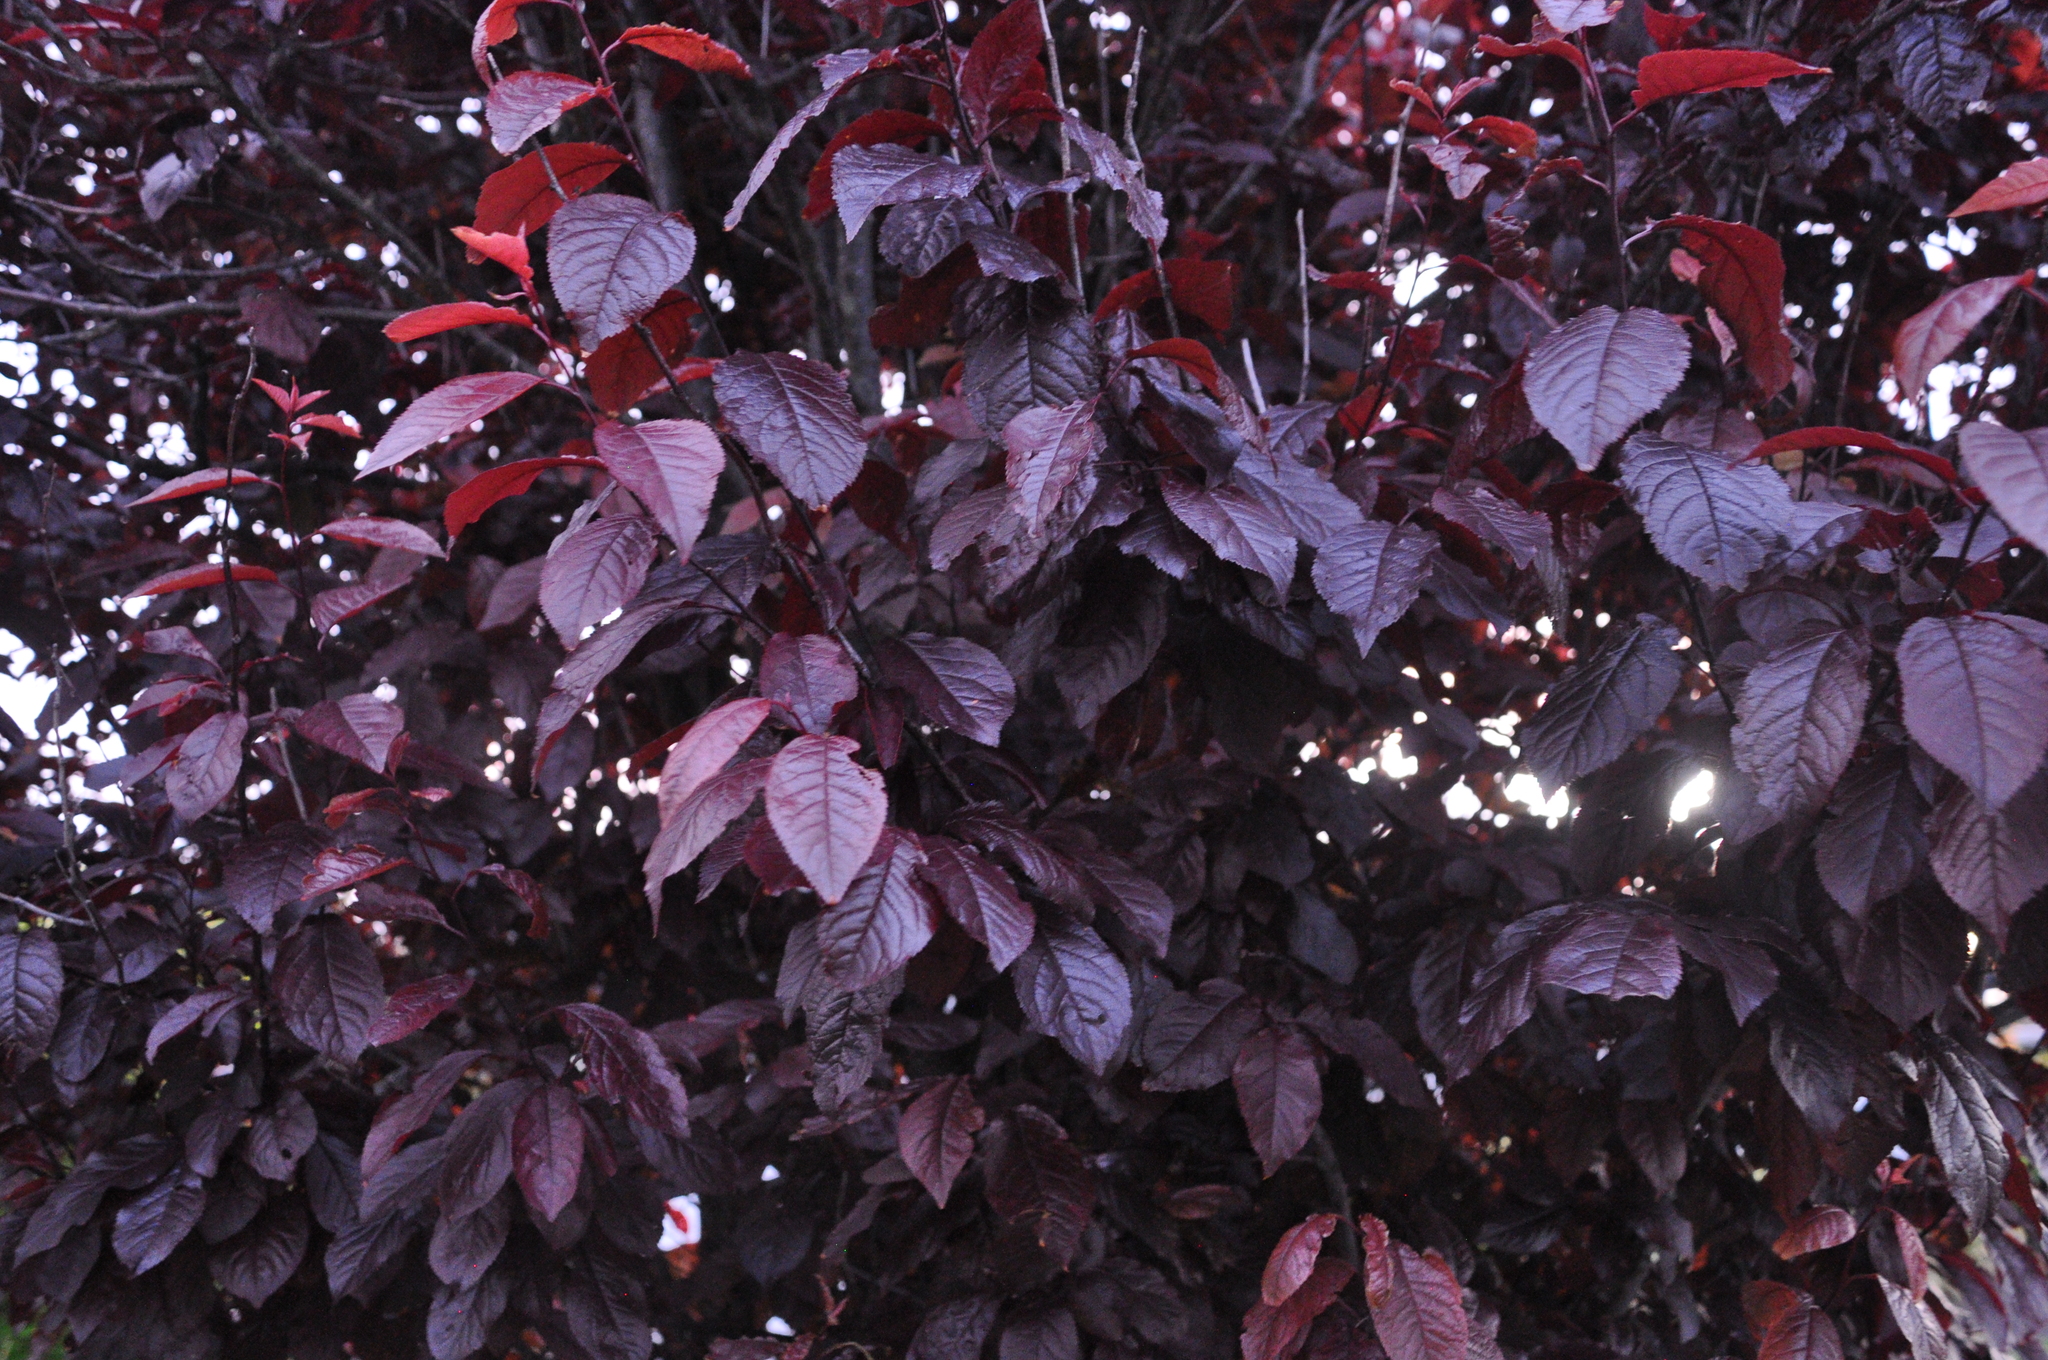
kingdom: Plantae
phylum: Tracheophyta
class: Magnoliopsida
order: Rosales
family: Rosaceae
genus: Prunus
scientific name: Prunus cerasifera
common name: Cherry plum
